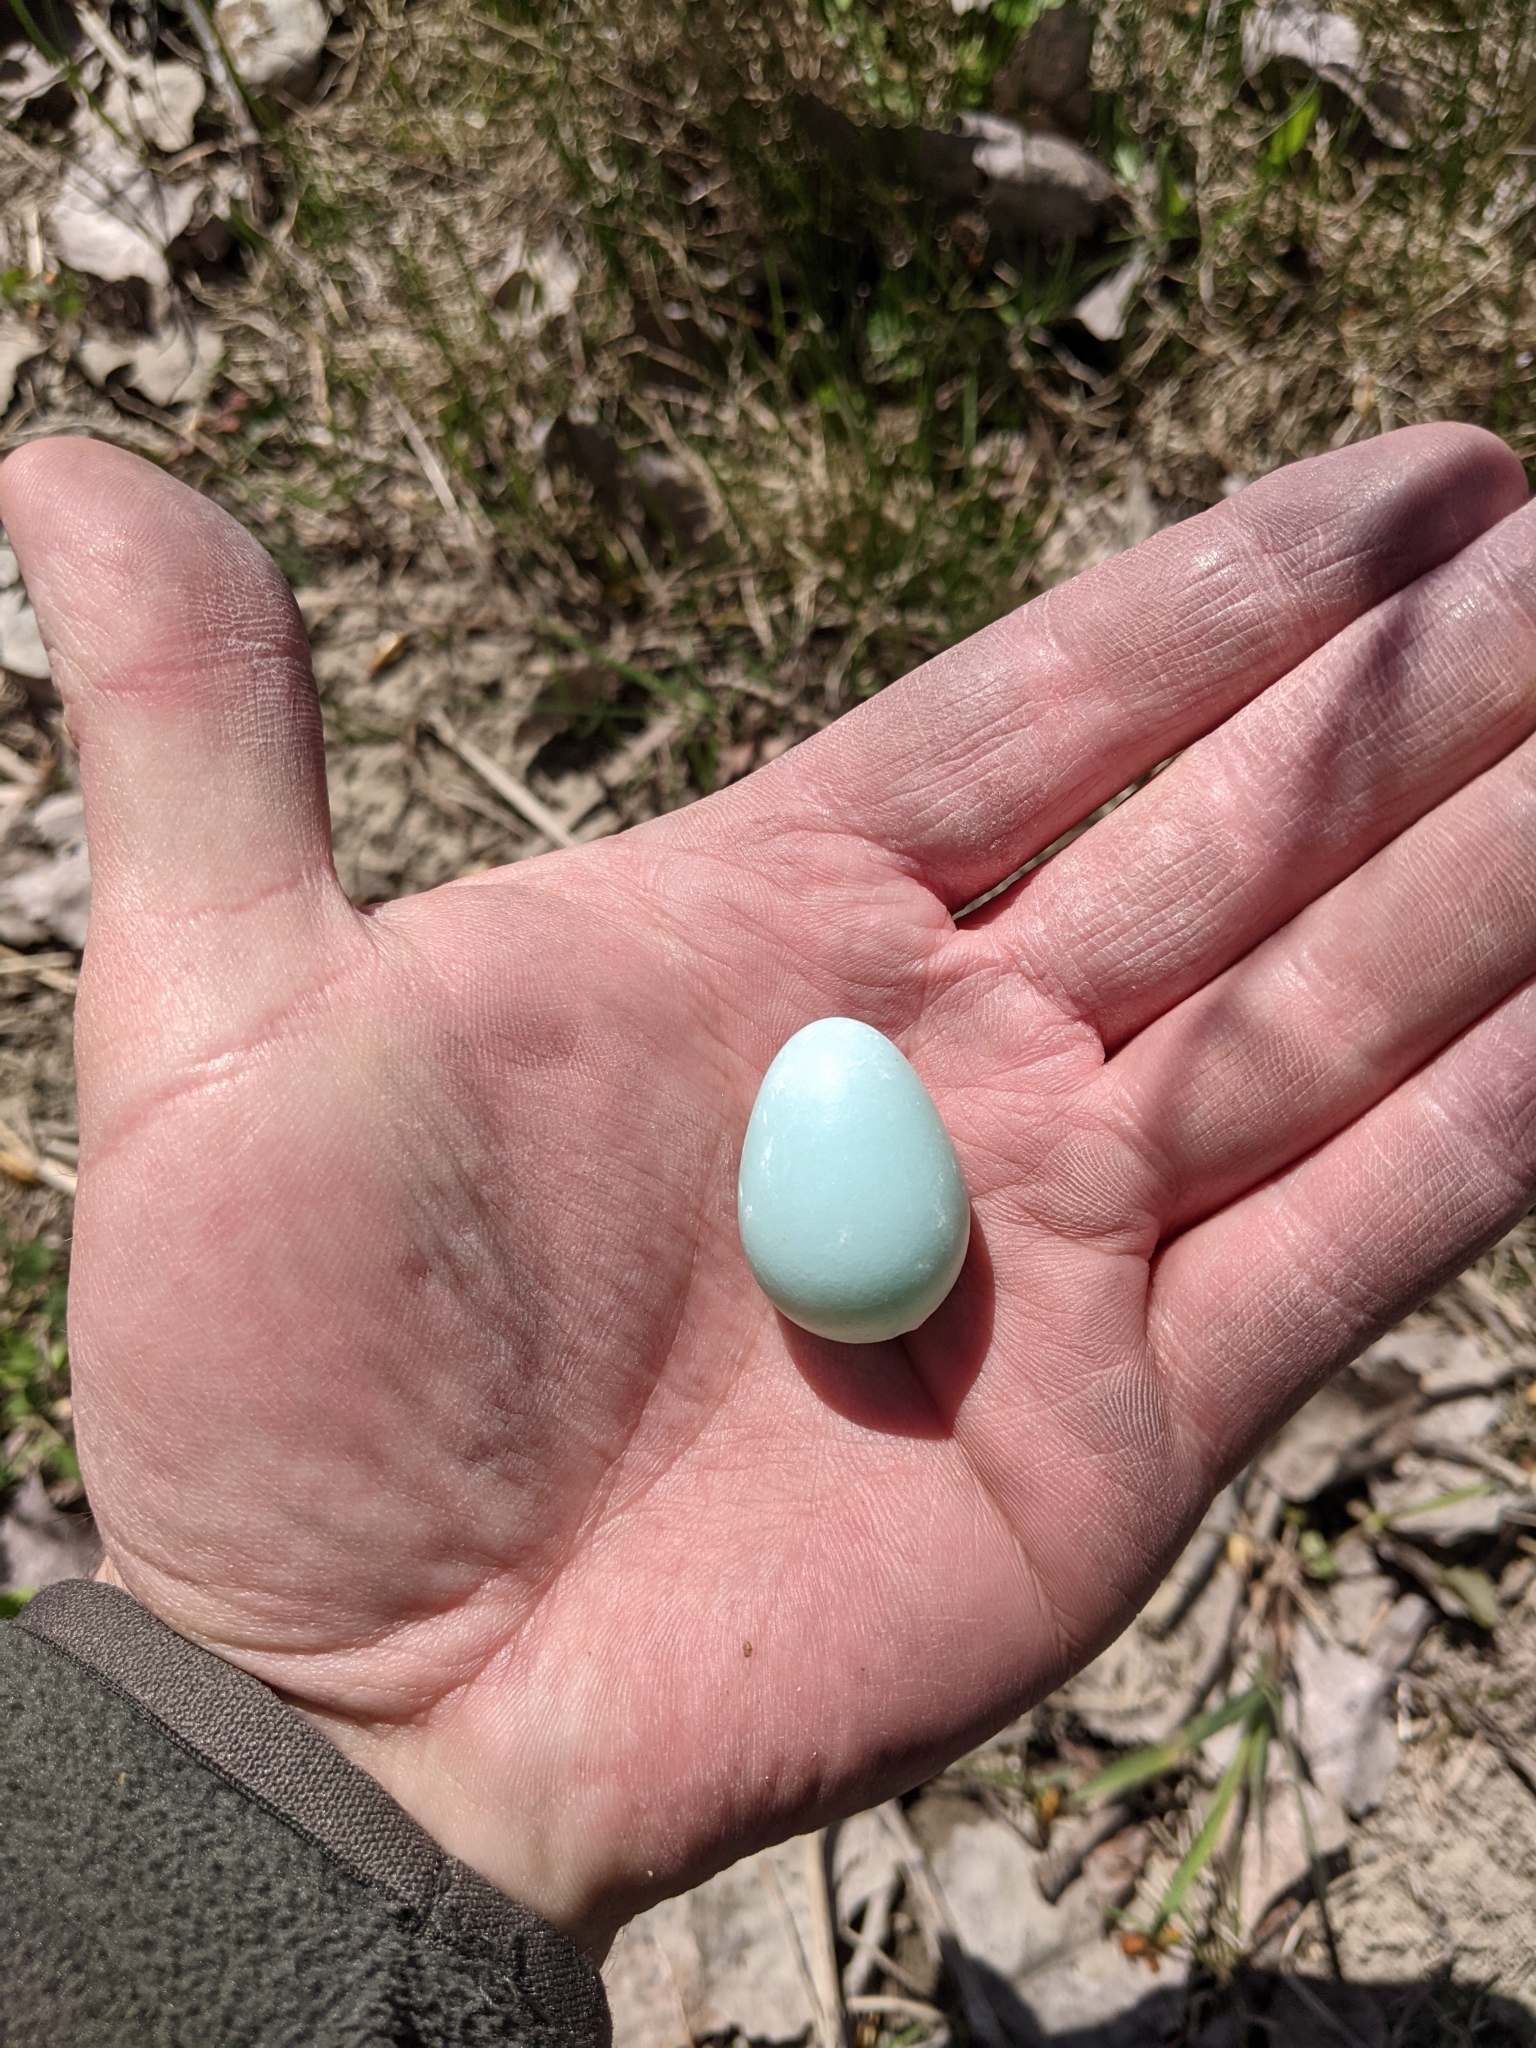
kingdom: Animalia
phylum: Chordata
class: Aves
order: Passeriformes
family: Sturnidae
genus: Sturnus
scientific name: Sturnus vulgaris
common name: Common starling
